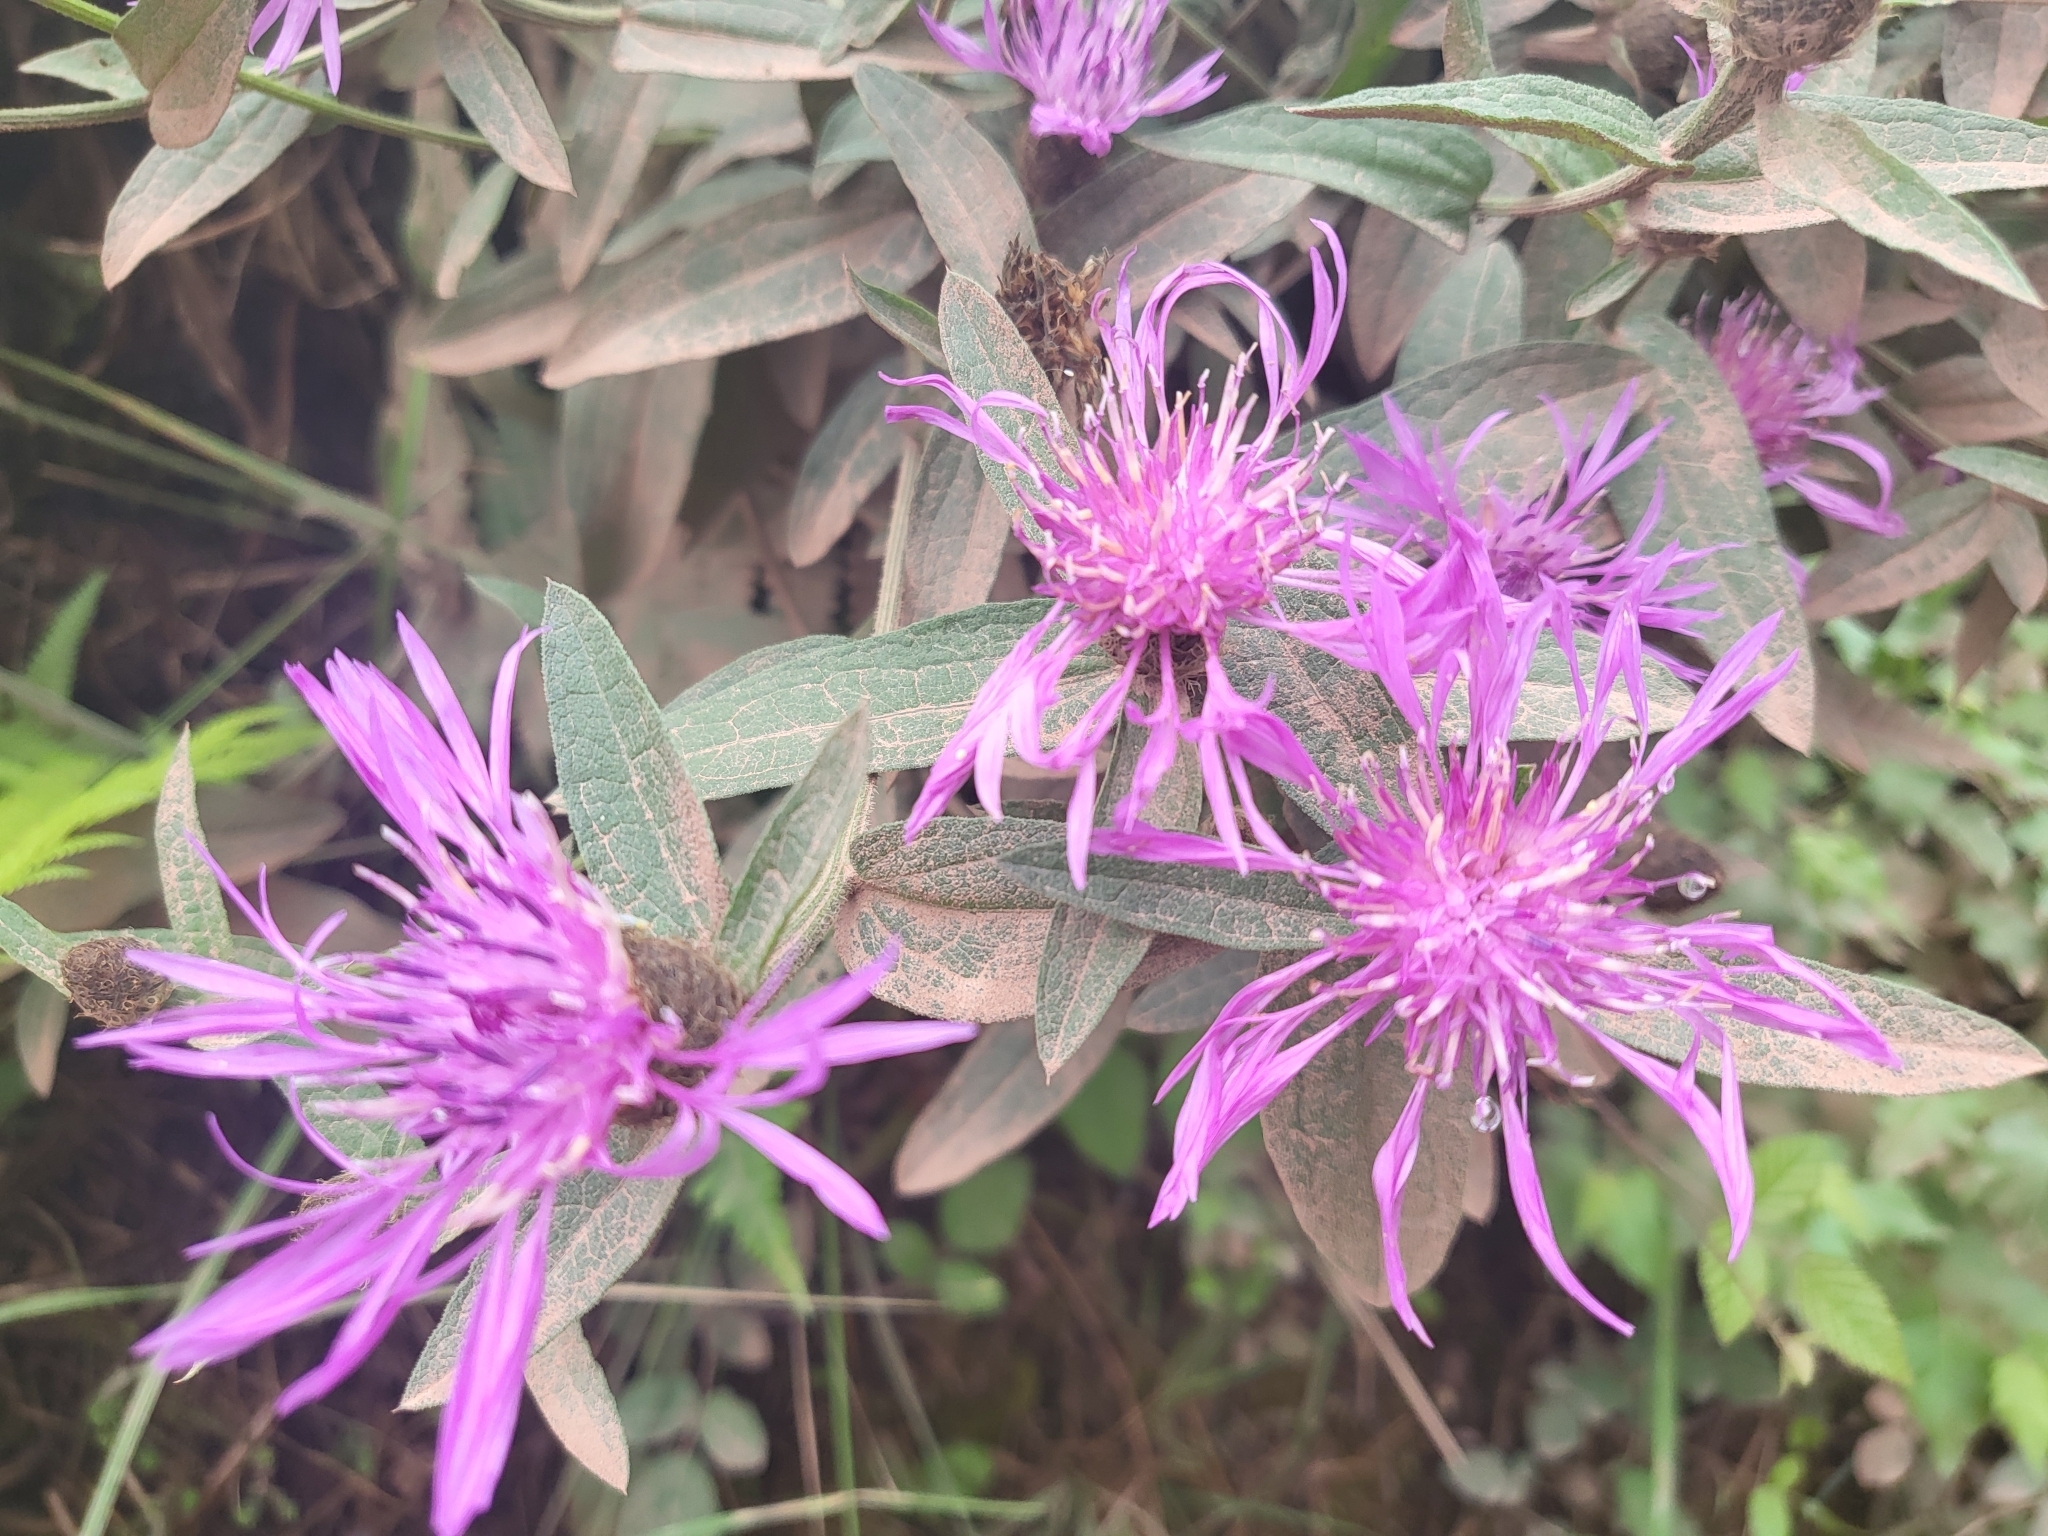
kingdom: Plantae
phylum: Tracheophyta
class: Magnoliopsida
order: Asterales
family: Asteraceae
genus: Centaurea
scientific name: Centaurea nigra
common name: Lesser knapweed
